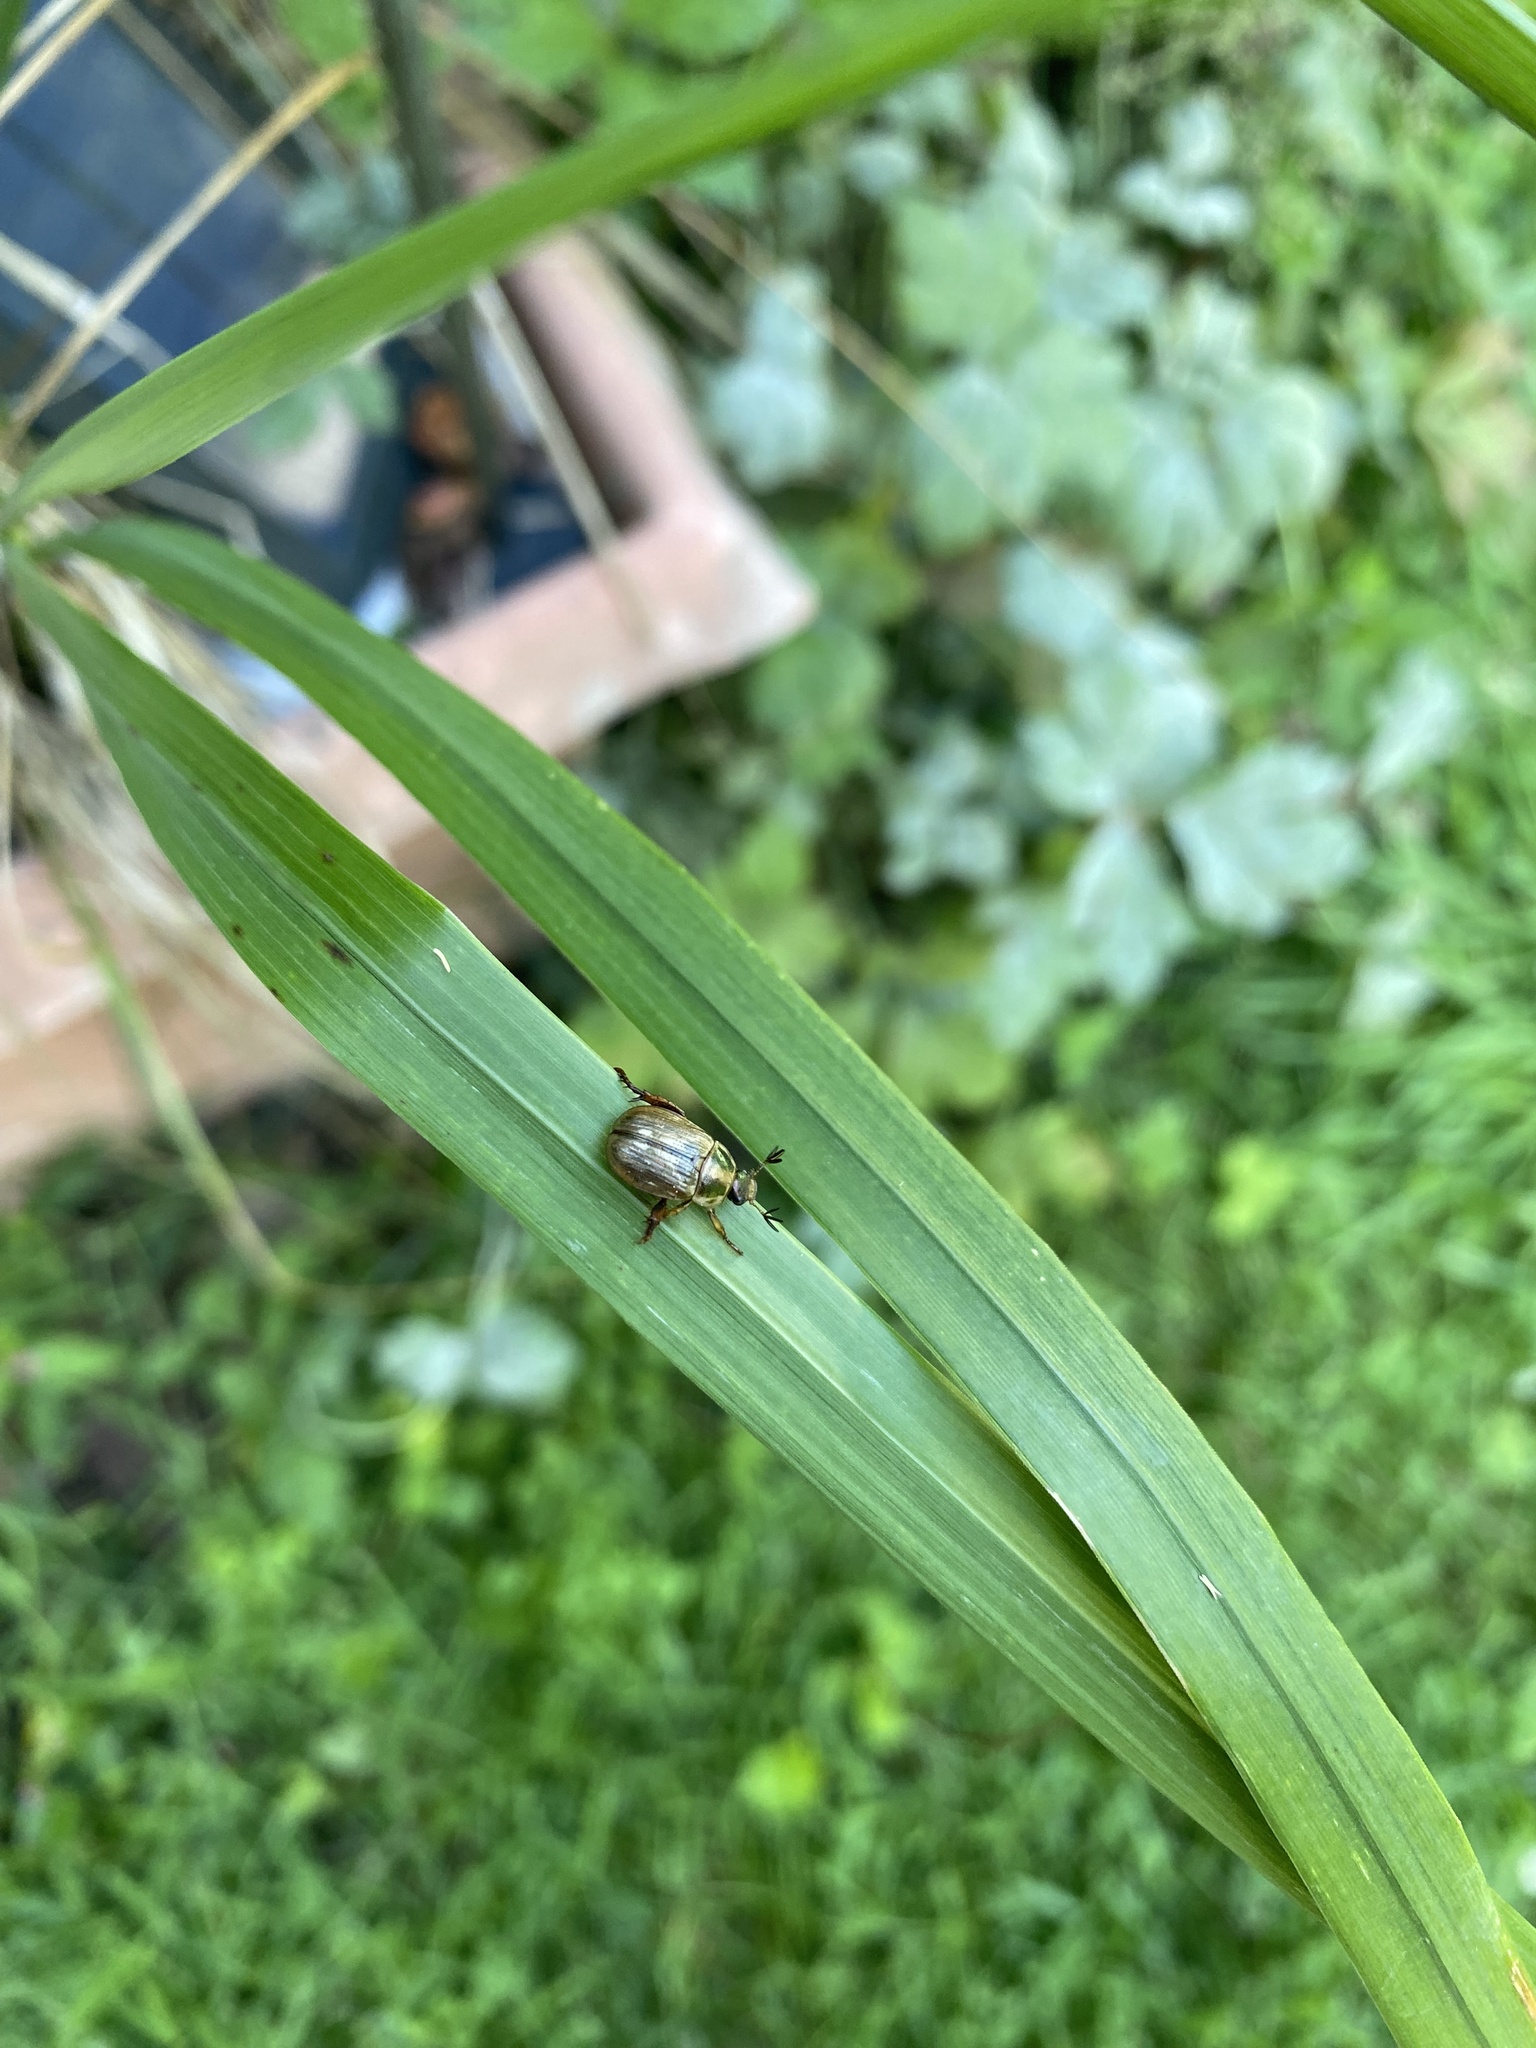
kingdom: Animalia
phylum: Arthropoda
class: Insecta
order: Coleoptera
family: Scarabaeidae
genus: Exomala
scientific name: Exomala orientalis
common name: Oriental beetle
